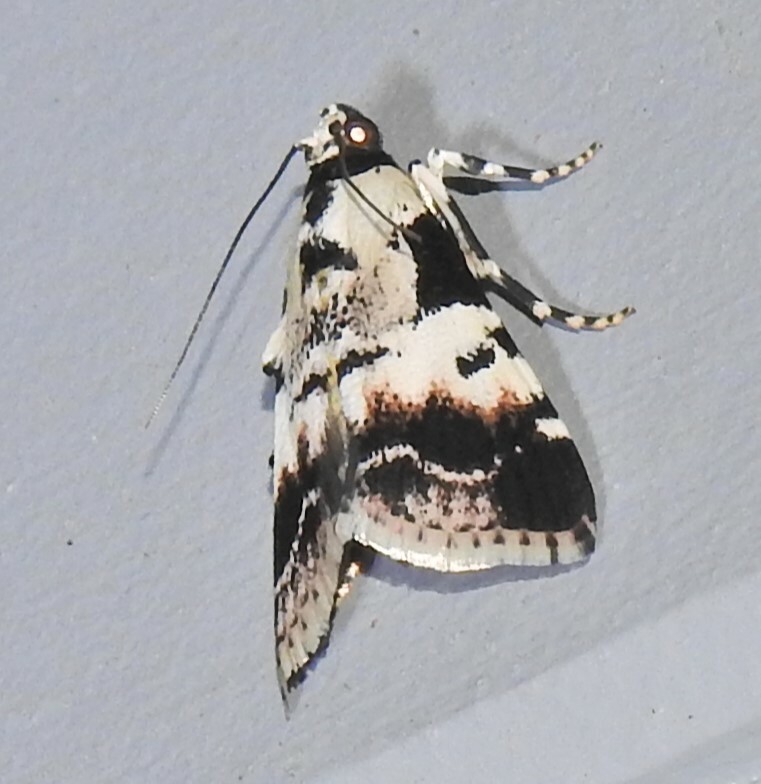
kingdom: Animalia
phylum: Arthropoda
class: Insecta
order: Lepidoptera
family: Pyralidae
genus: Orthaga
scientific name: Orthaga seminivea
